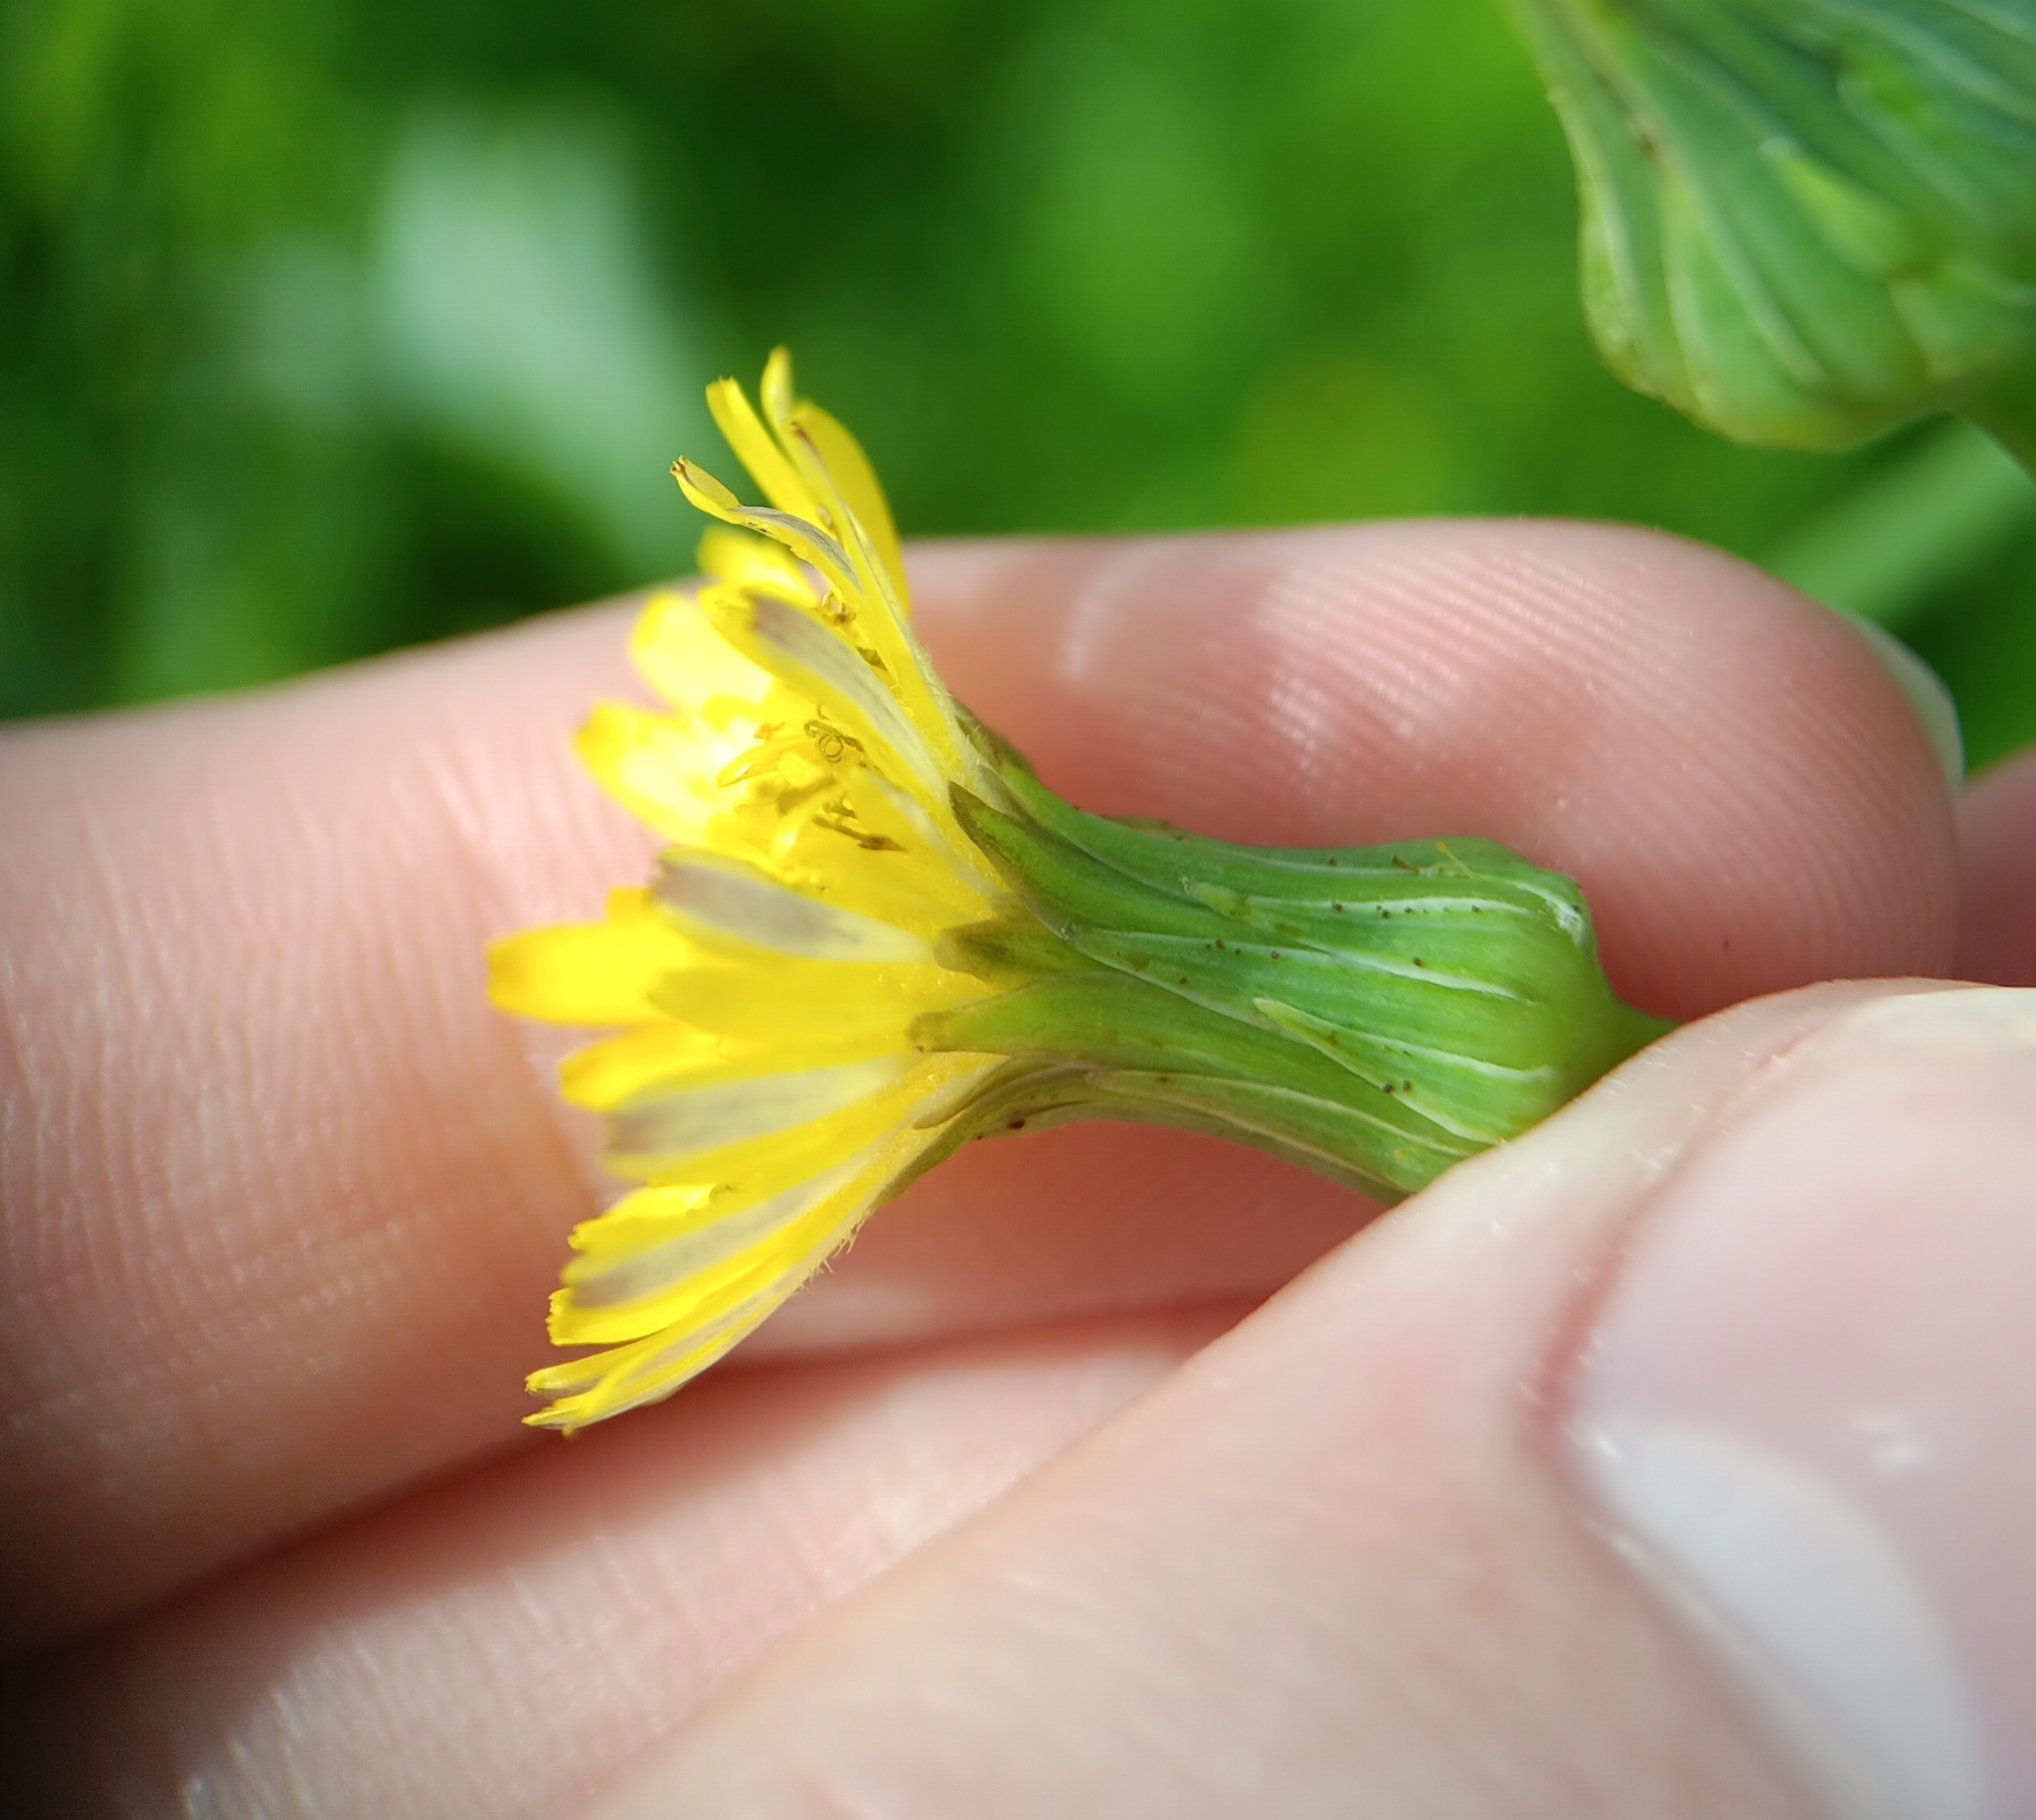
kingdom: Plantae
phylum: Tracheophyta
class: Magnoliopsida
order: Asterales
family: Asteraceae
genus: Sonchus
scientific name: Sonchus oleraceus
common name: Common sowthistle
